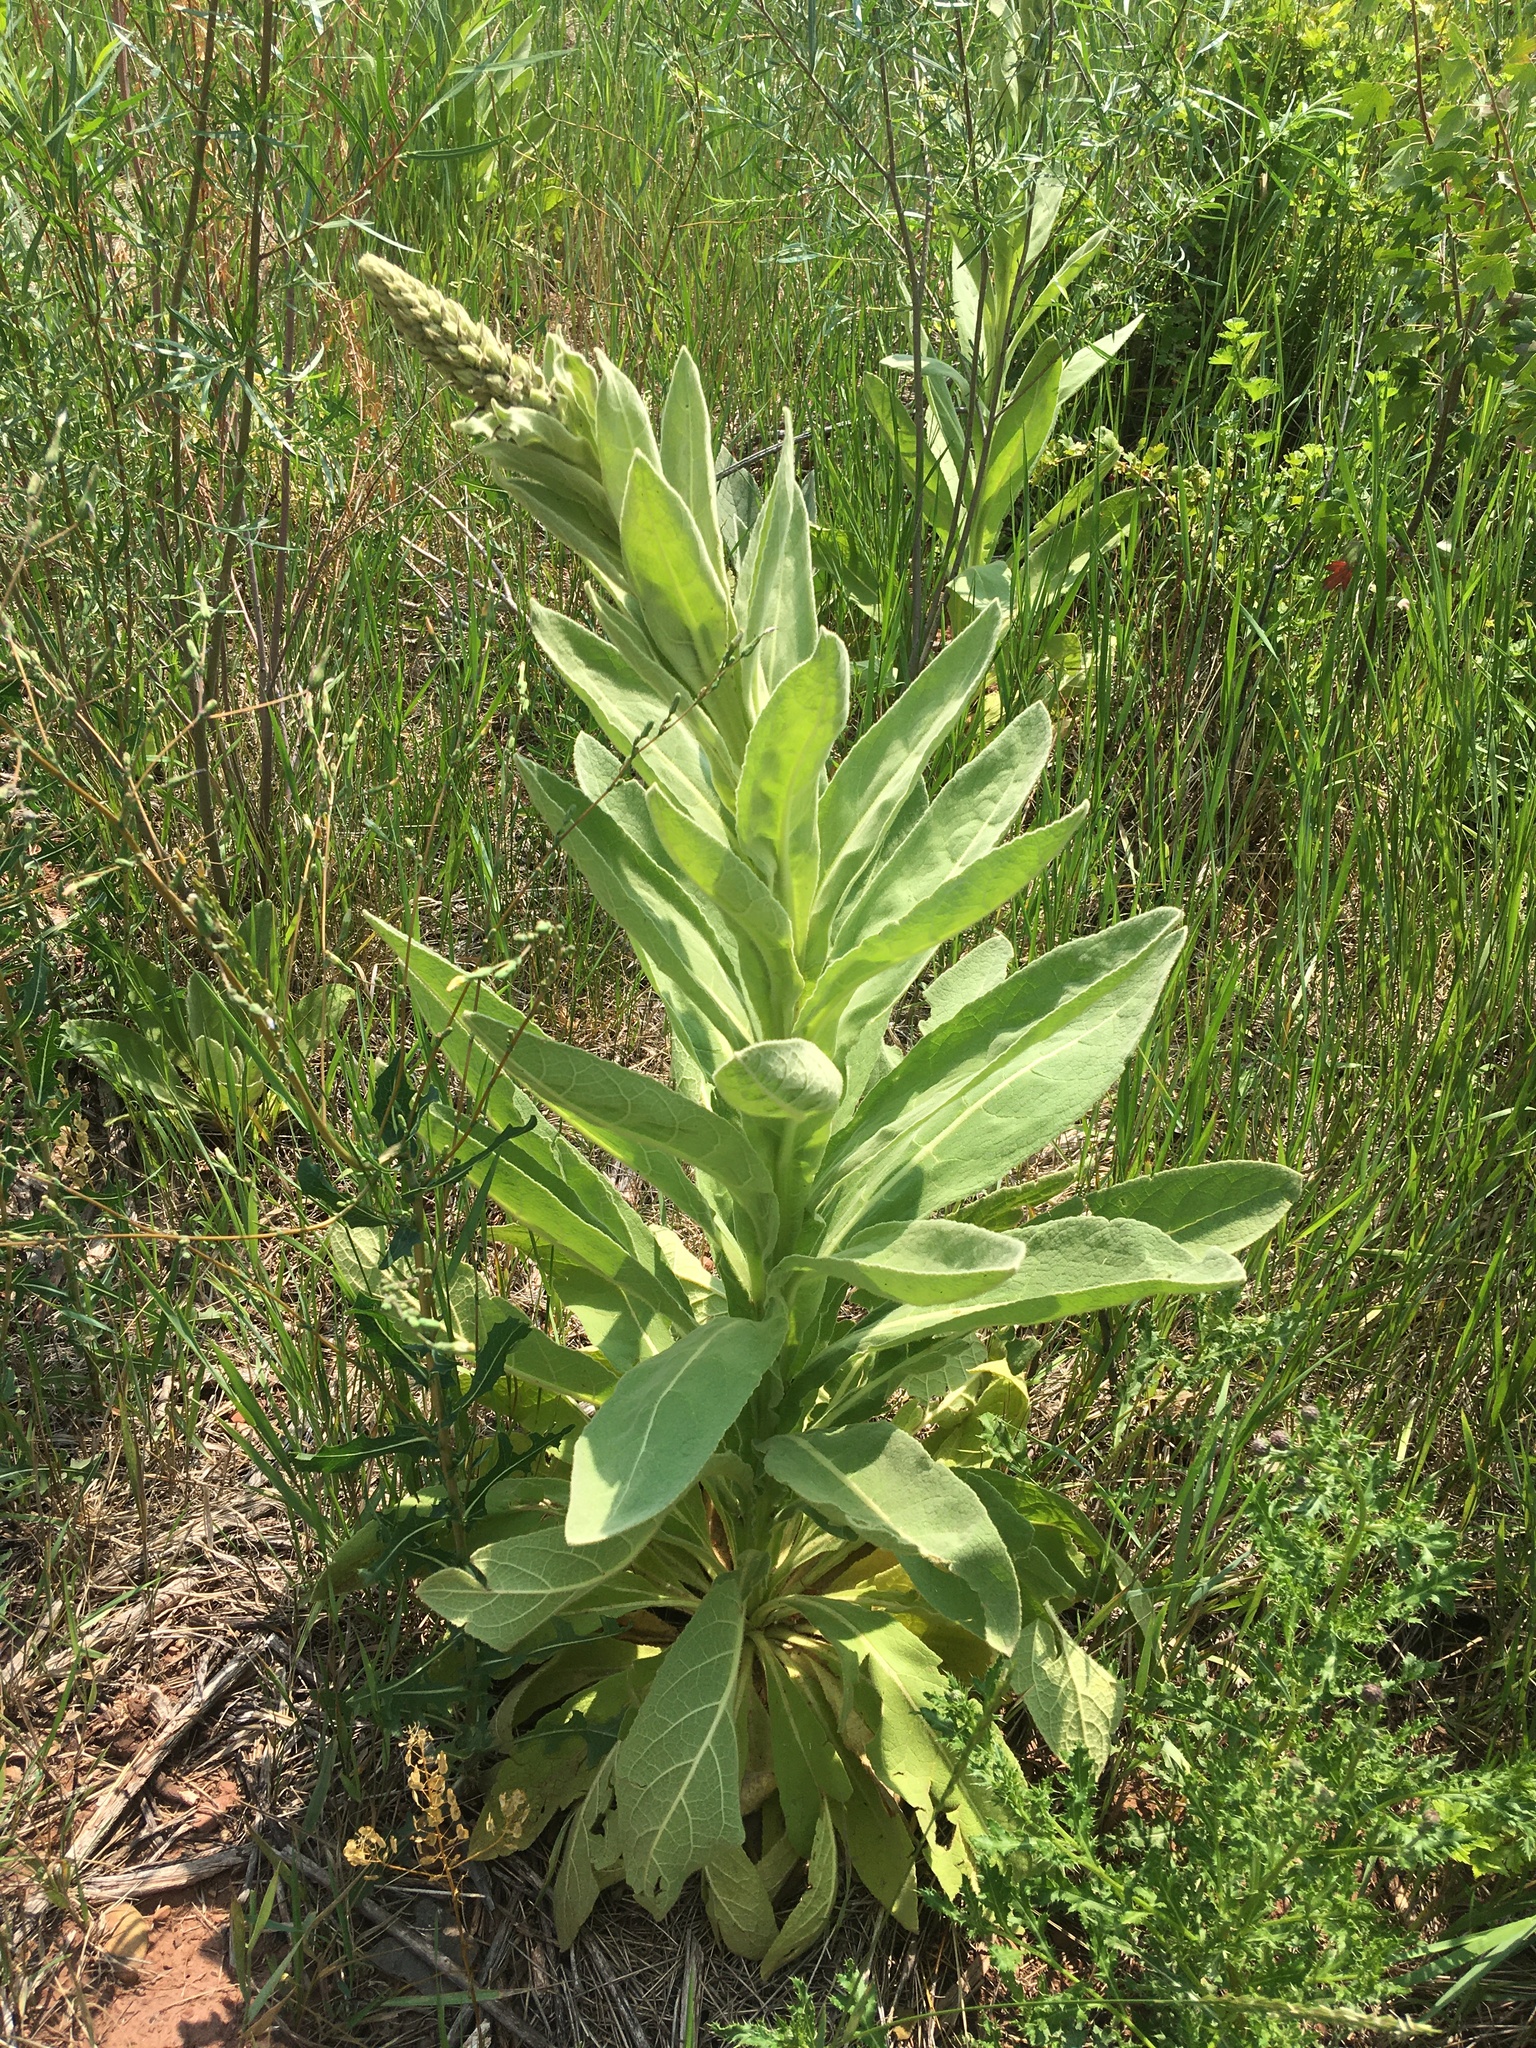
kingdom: Plantae
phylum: Tracheophyta
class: Magnoliopsida
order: Lamiales
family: Scrophulariaceae
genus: Verbascum
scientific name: Verbascum thapsus
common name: Common mullein
